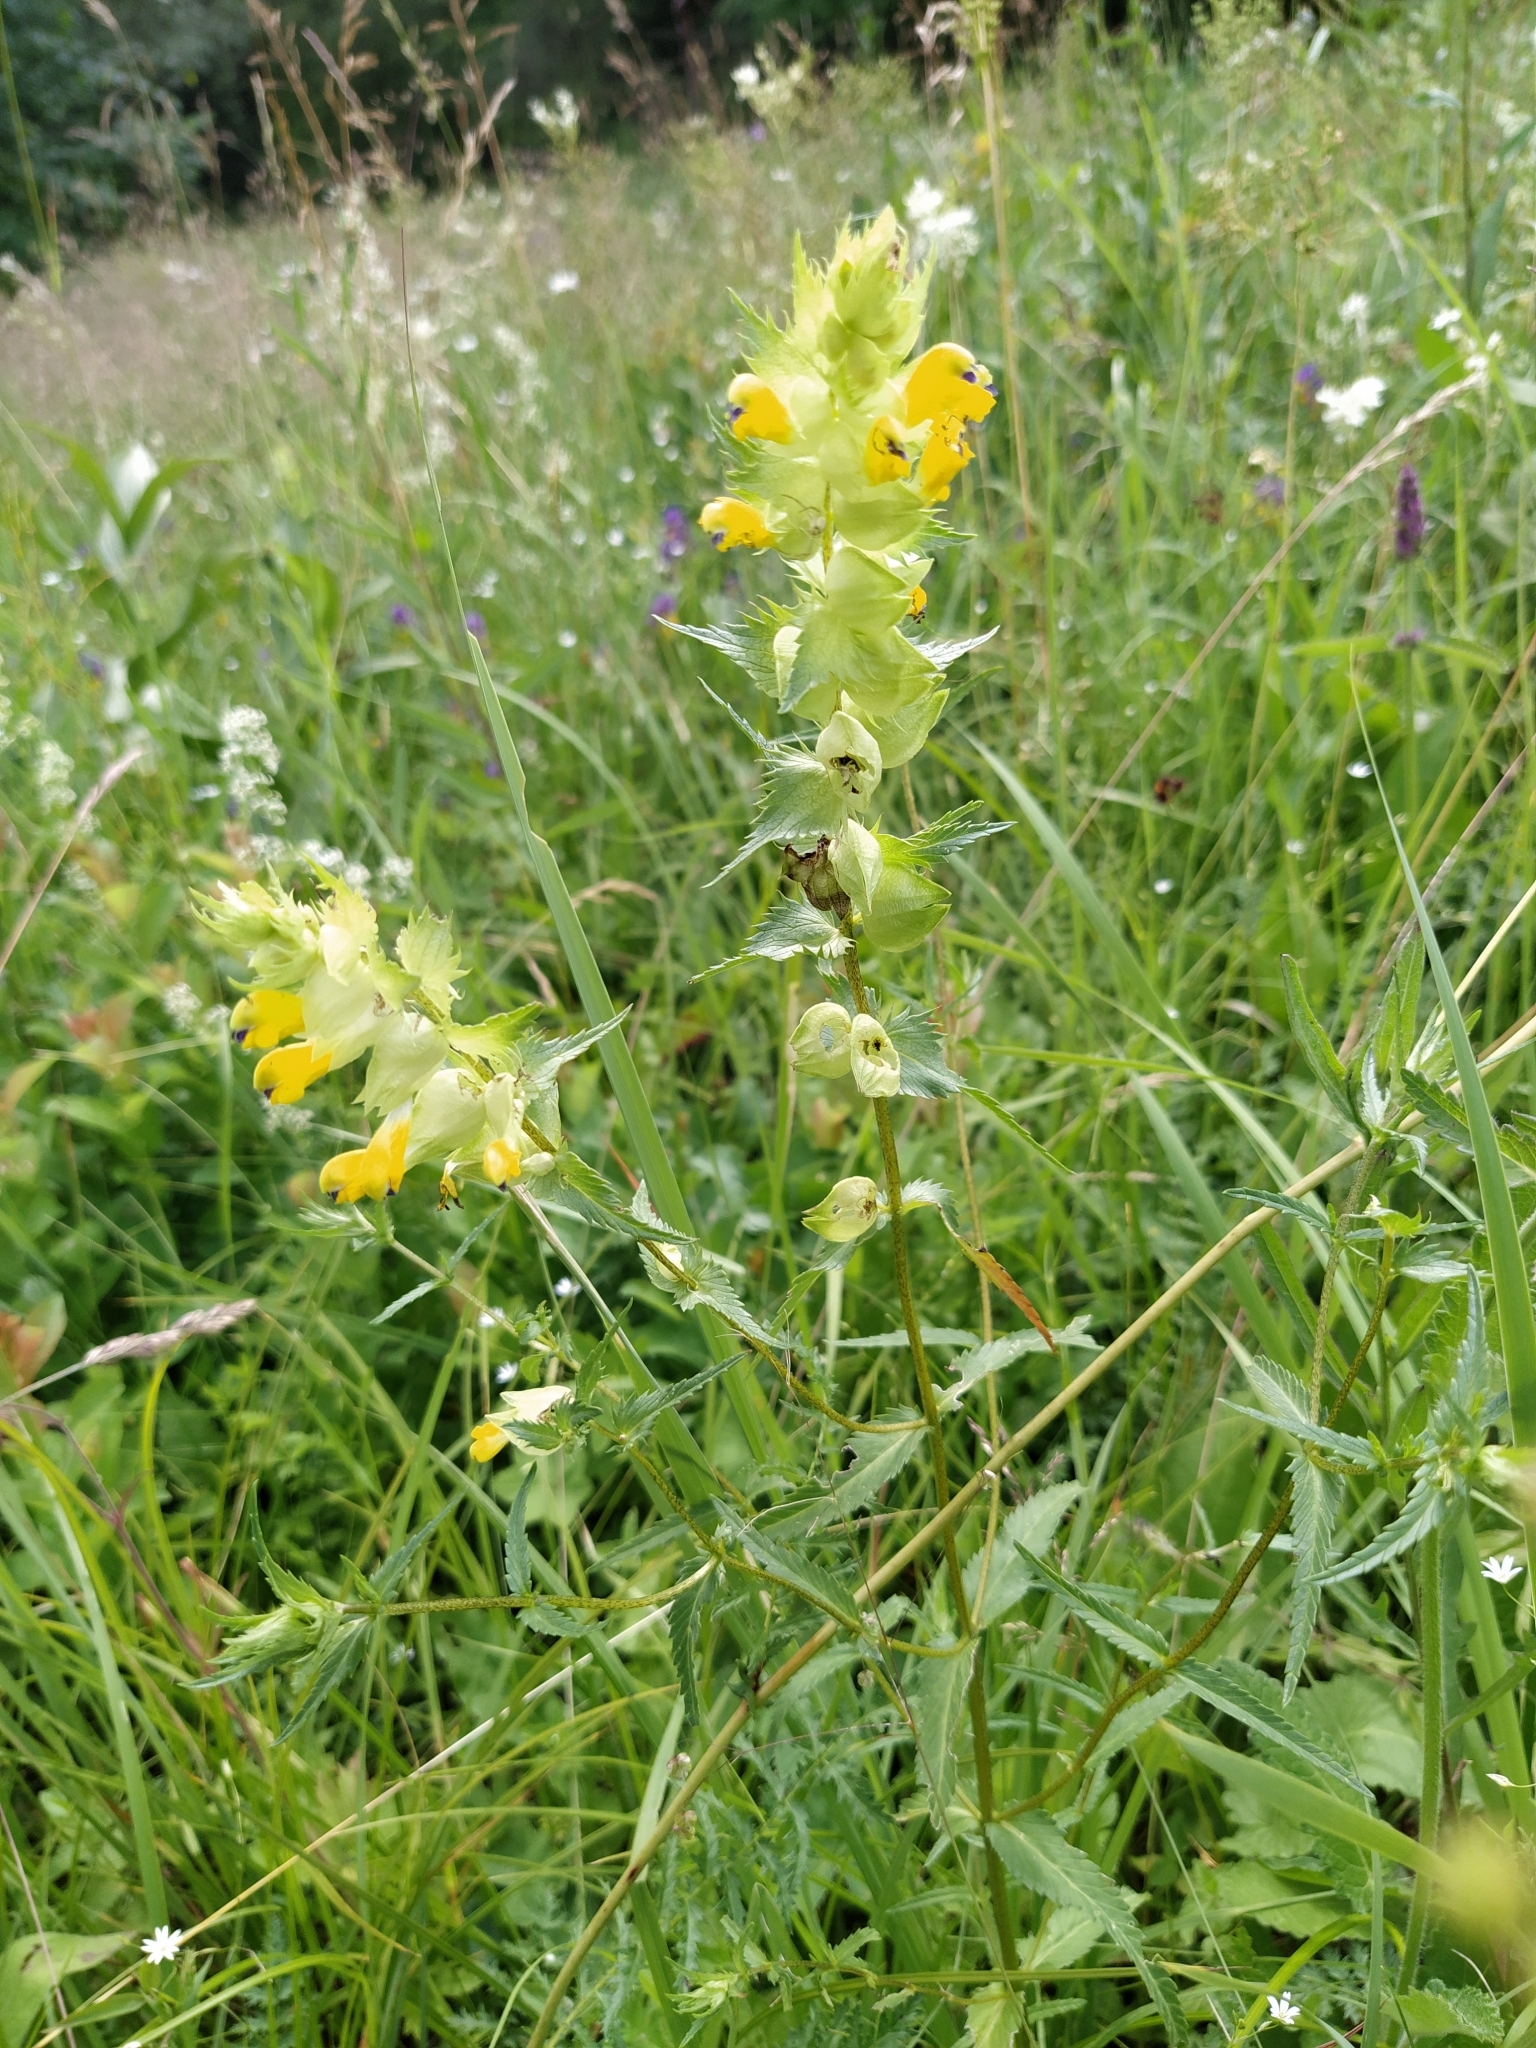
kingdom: Plantae
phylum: Tracheophyta
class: Magnoliopsida
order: Lamiales
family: Orobanchaceae
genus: Rhinanthus
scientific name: Rhinanthus serotinus
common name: Late-flowering yellow rattle
